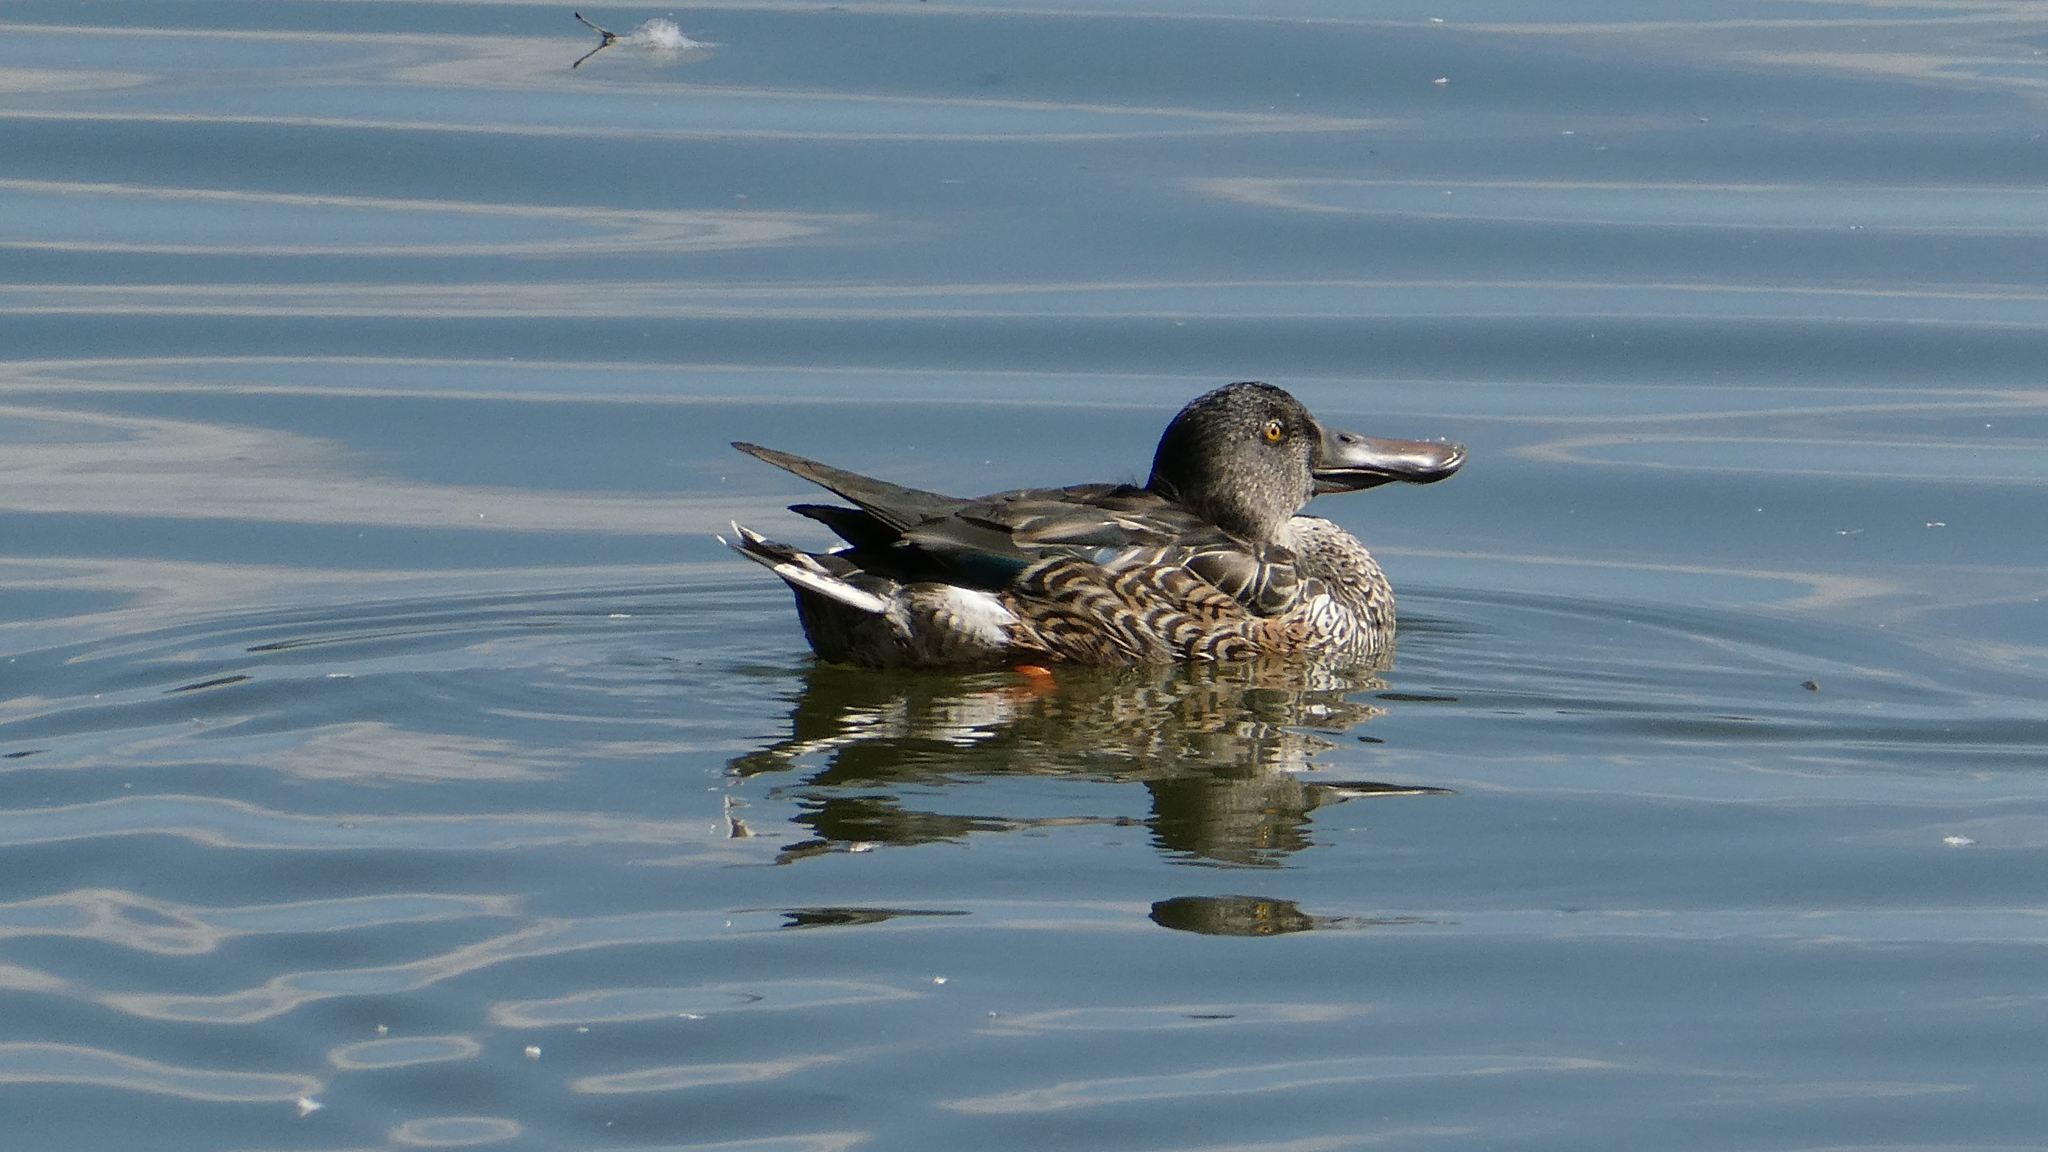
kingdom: Animalia
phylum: Chordata
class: Aves
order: Anseriformes
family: Anatidae
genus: Spatula
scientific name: Spatula clypeata
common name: Northern shoveler
